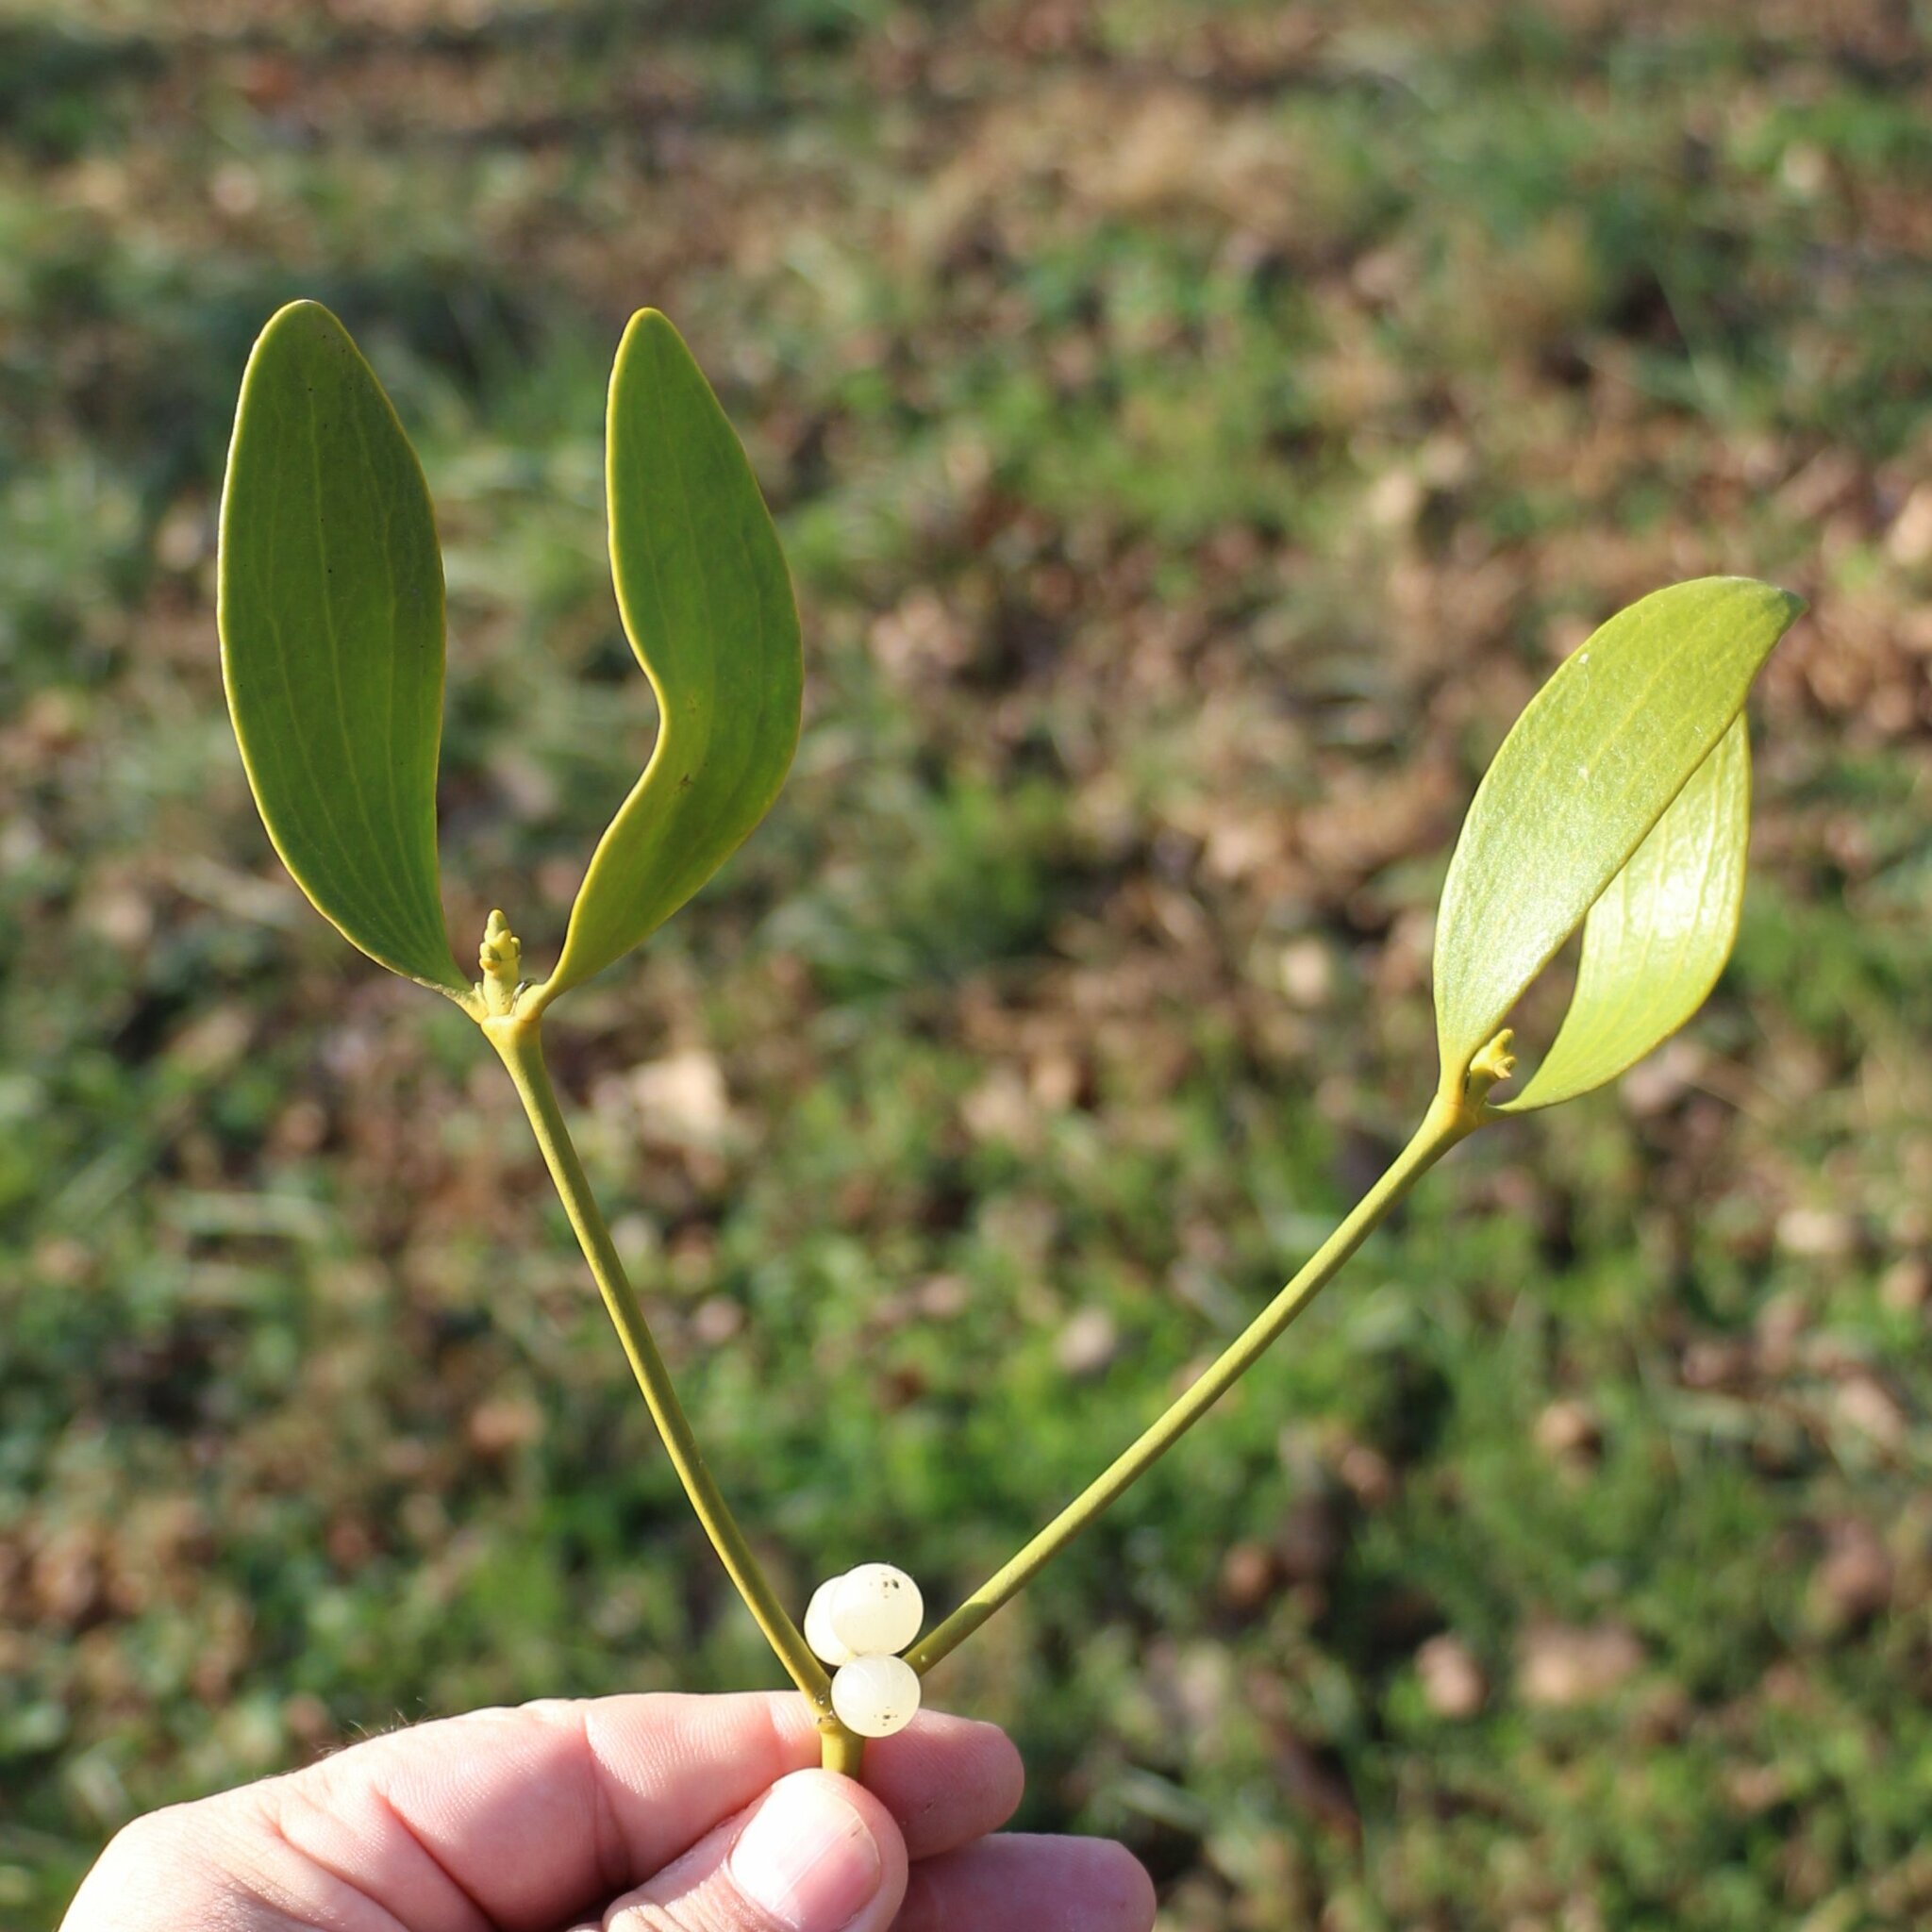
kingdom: Plantae
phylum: Tracheophyta
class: Magnoliopsida
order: Santalales
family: Viscaceae
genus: Viscum
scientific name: Viscum album
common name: Mistletoe
